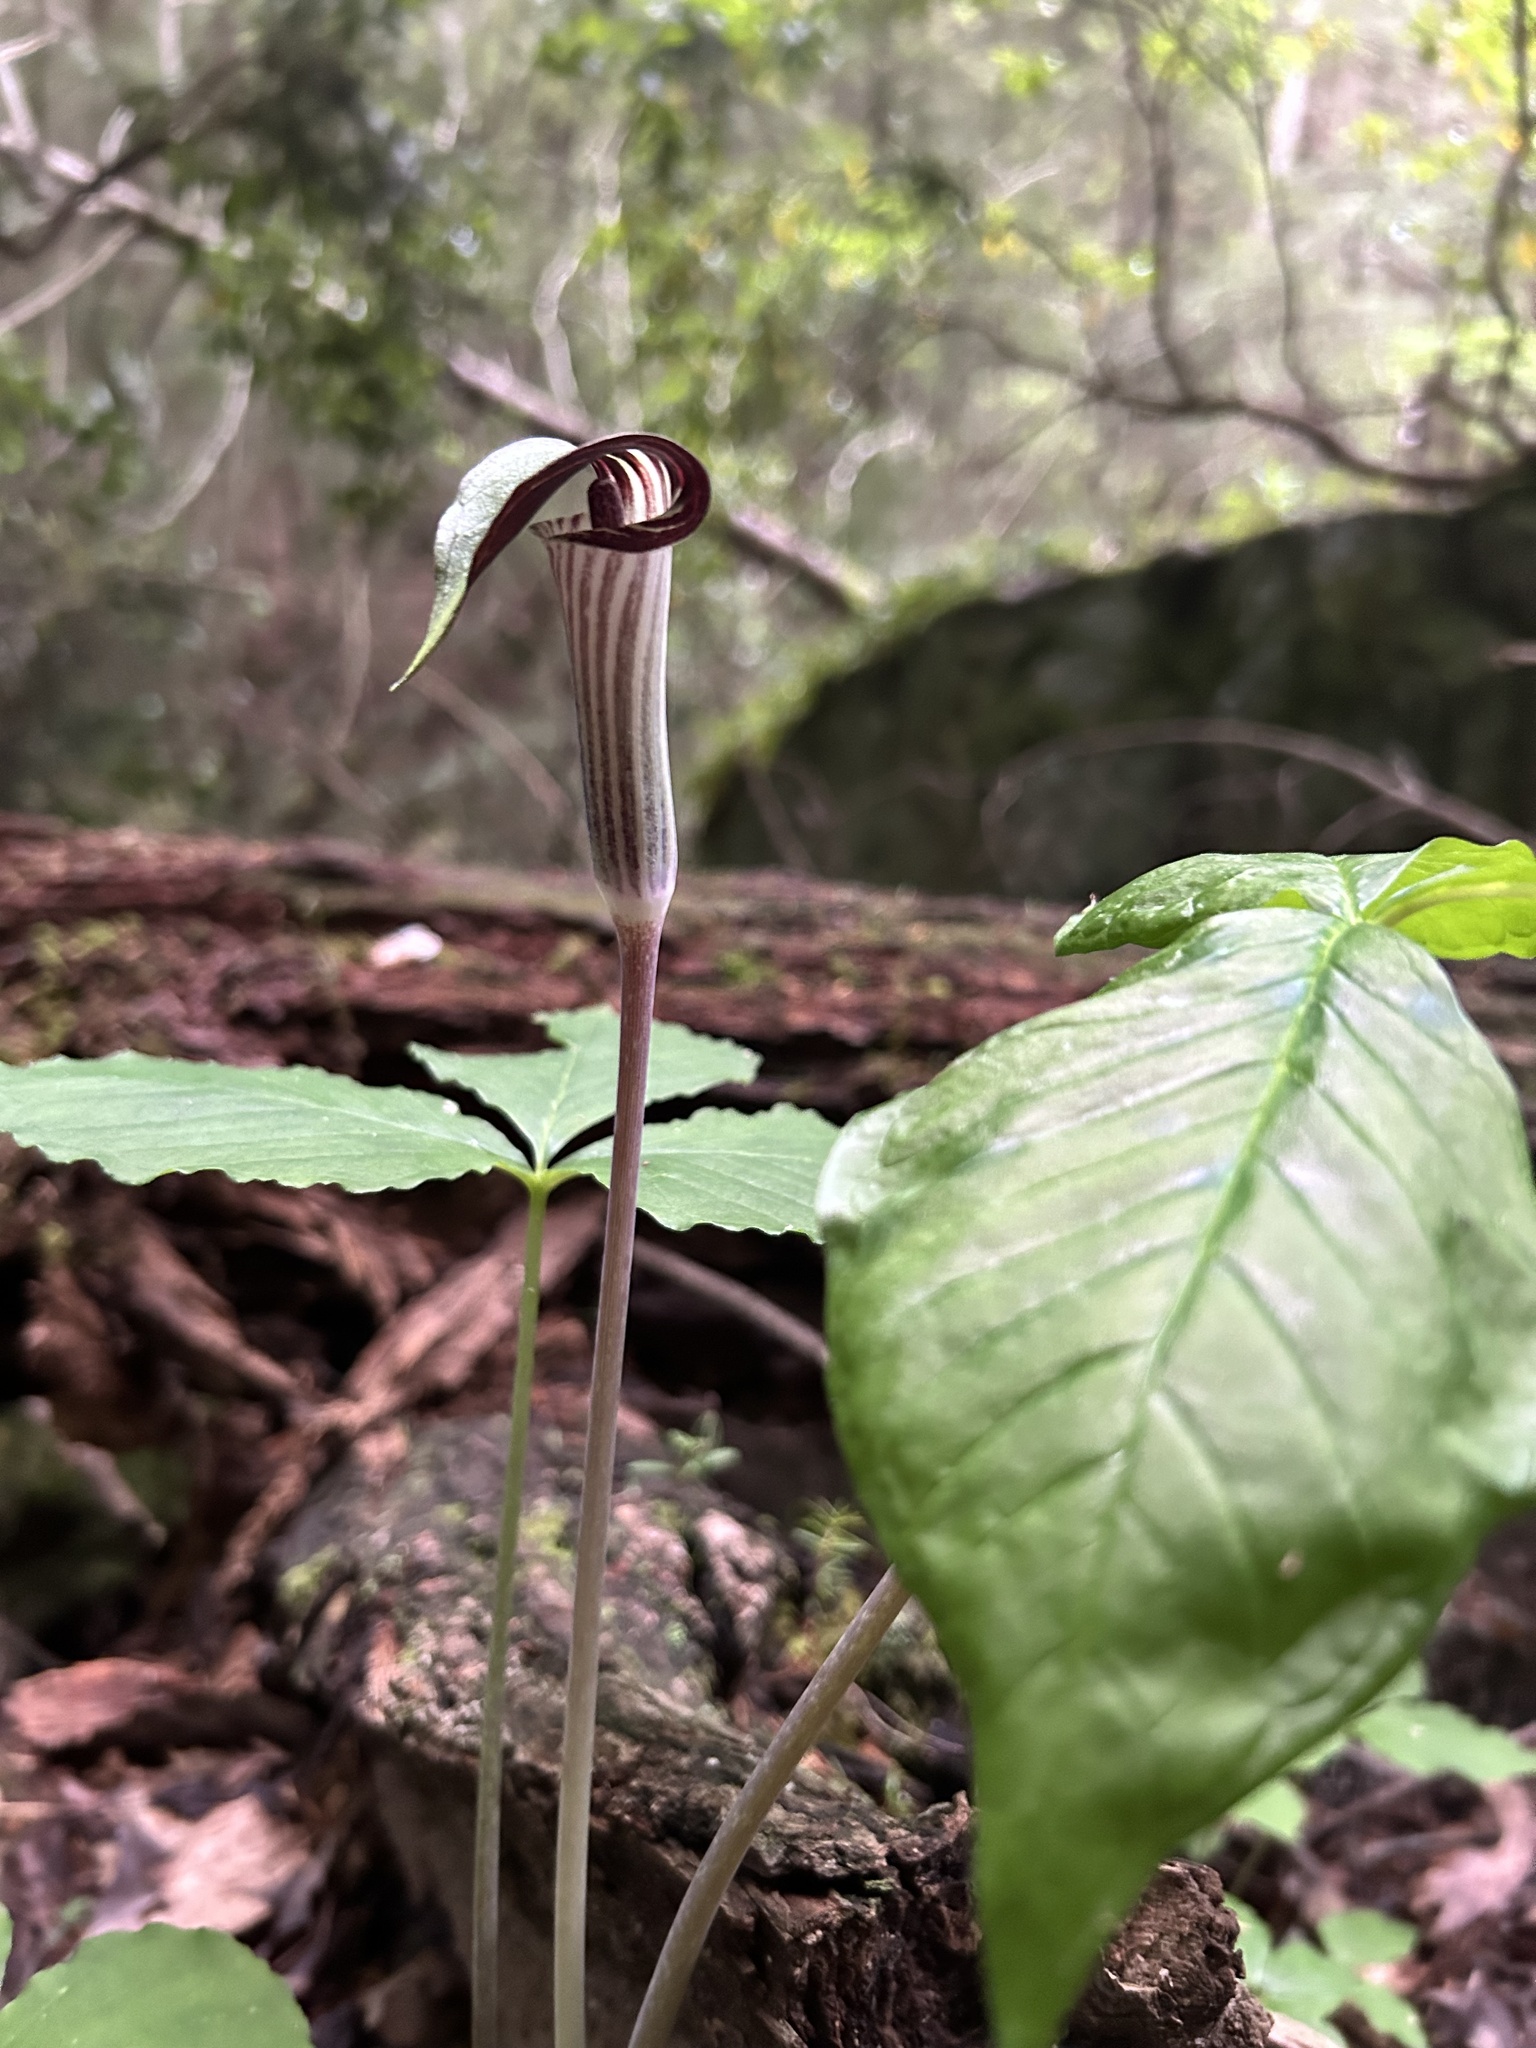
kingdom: Plantae
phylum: Tracheophyta
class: Liliopsida
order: Alismatales
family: Araceae
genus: Arisaema
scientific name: Arisaema triphyllum
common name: Jack-in-the-pulpit
